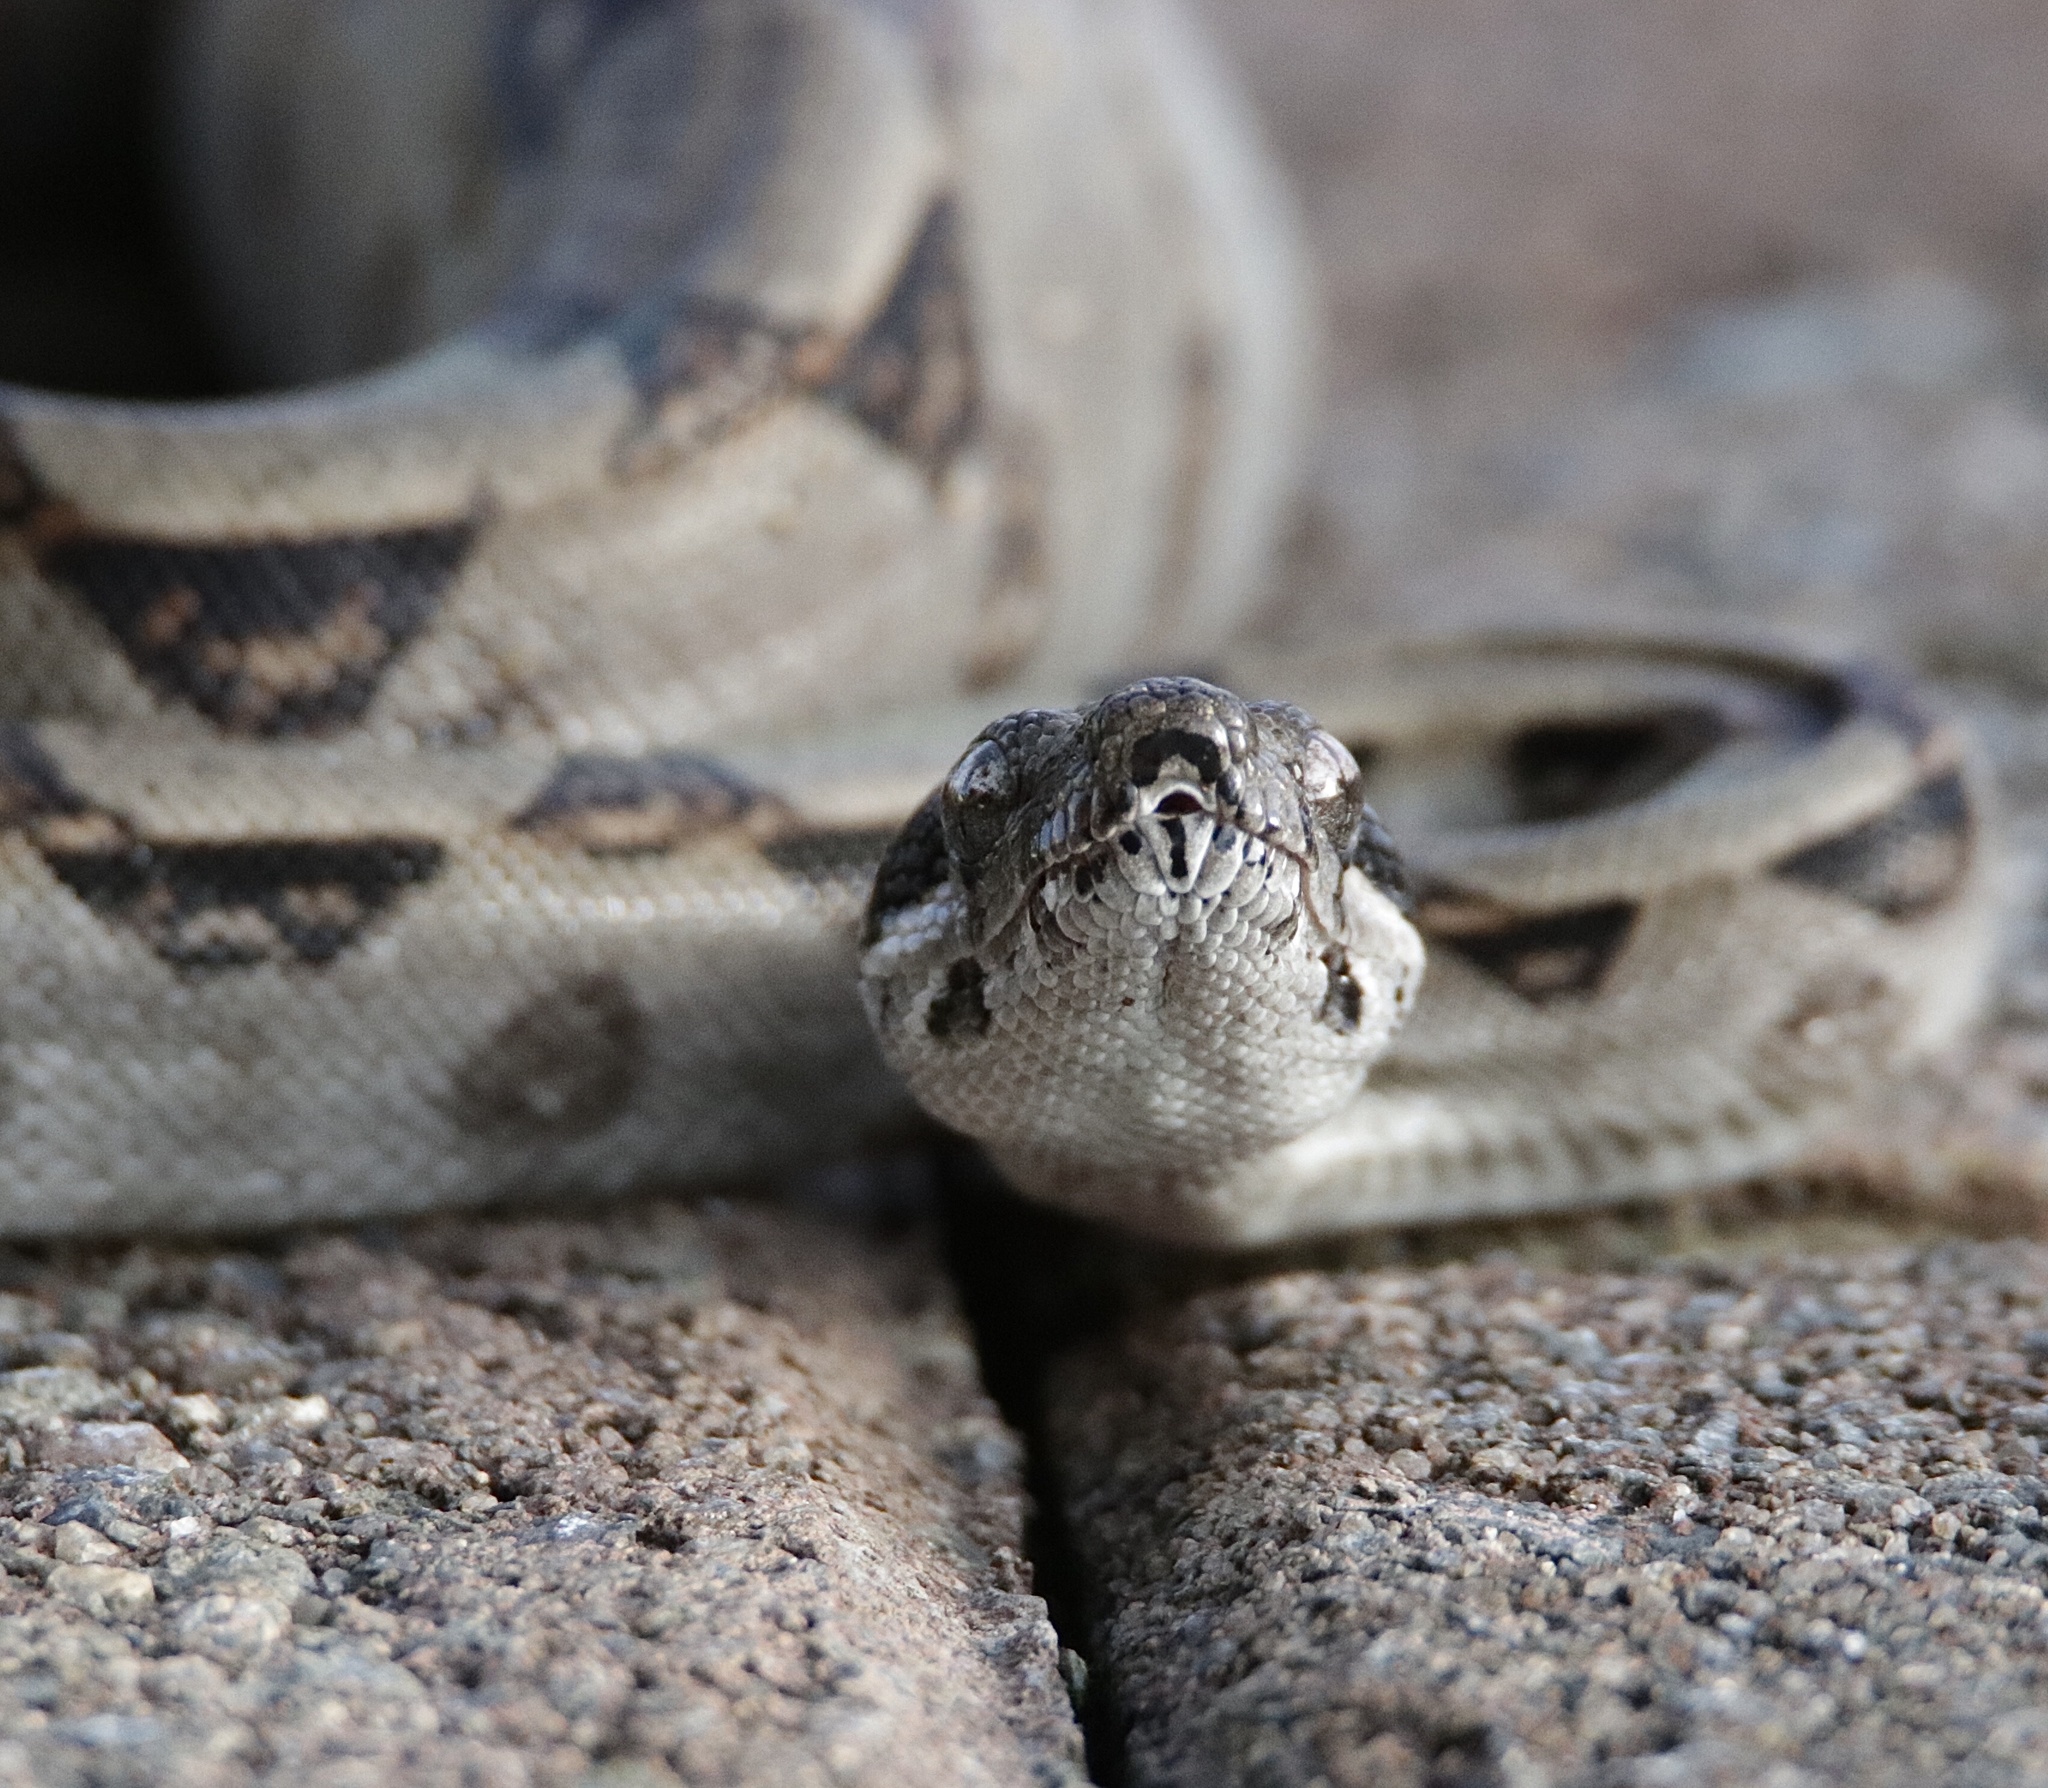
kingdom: Animalia
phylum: Chordata
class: Squamata
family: Boidae
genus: Boa
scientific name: Boa imperator
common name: Central american boa
